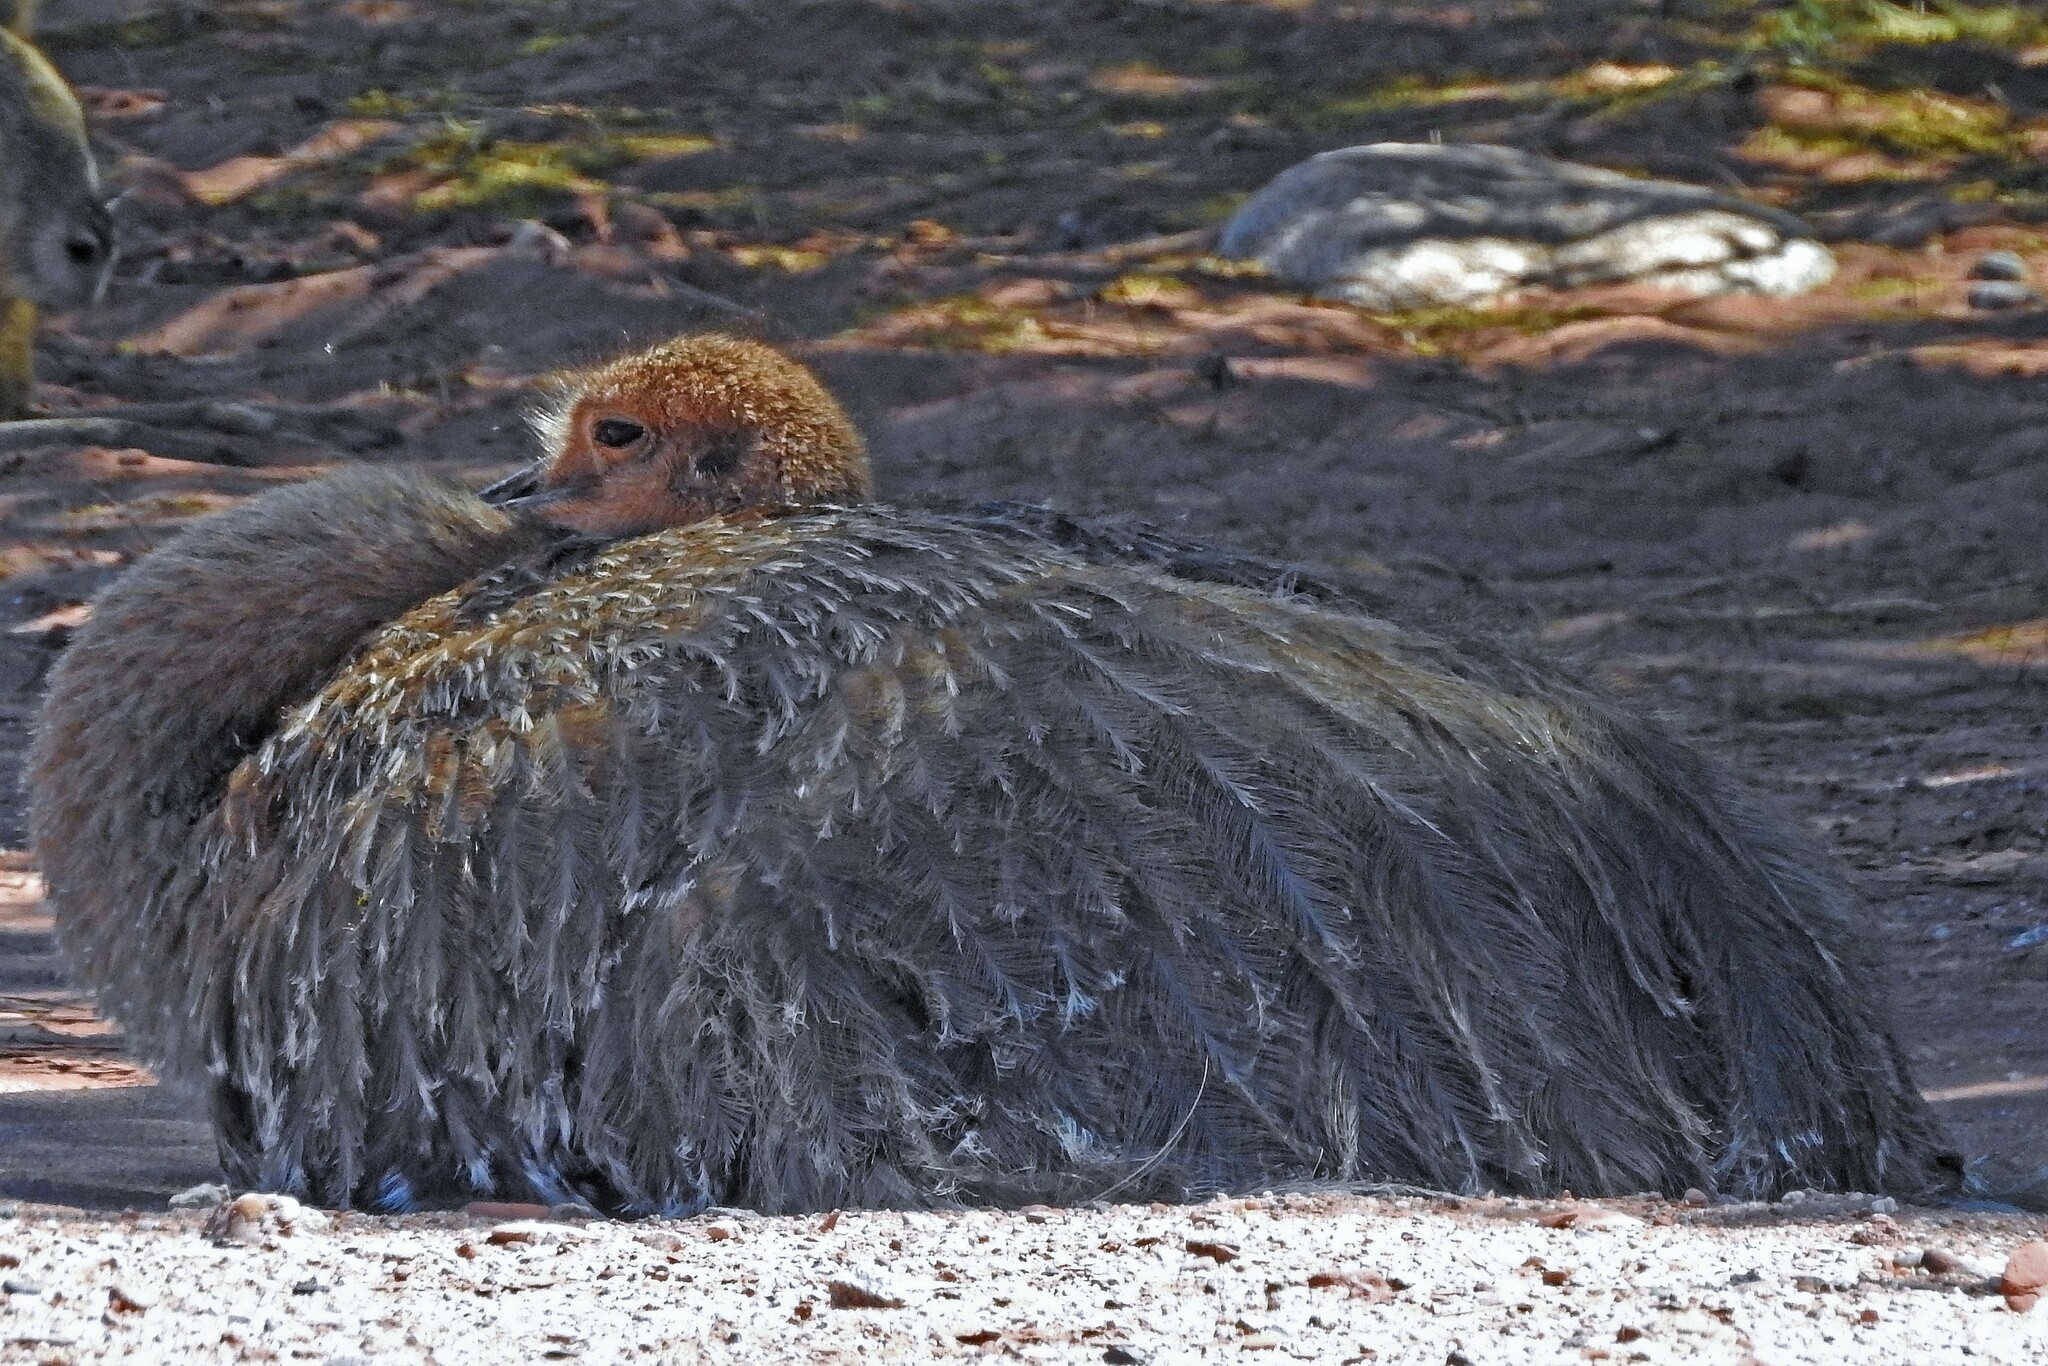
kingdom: Animalia
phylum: Chordata
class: Aves
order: Rheiformes
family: Rheidae
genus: Rhea
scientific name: Rhea pennata
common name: Lesser rhea
